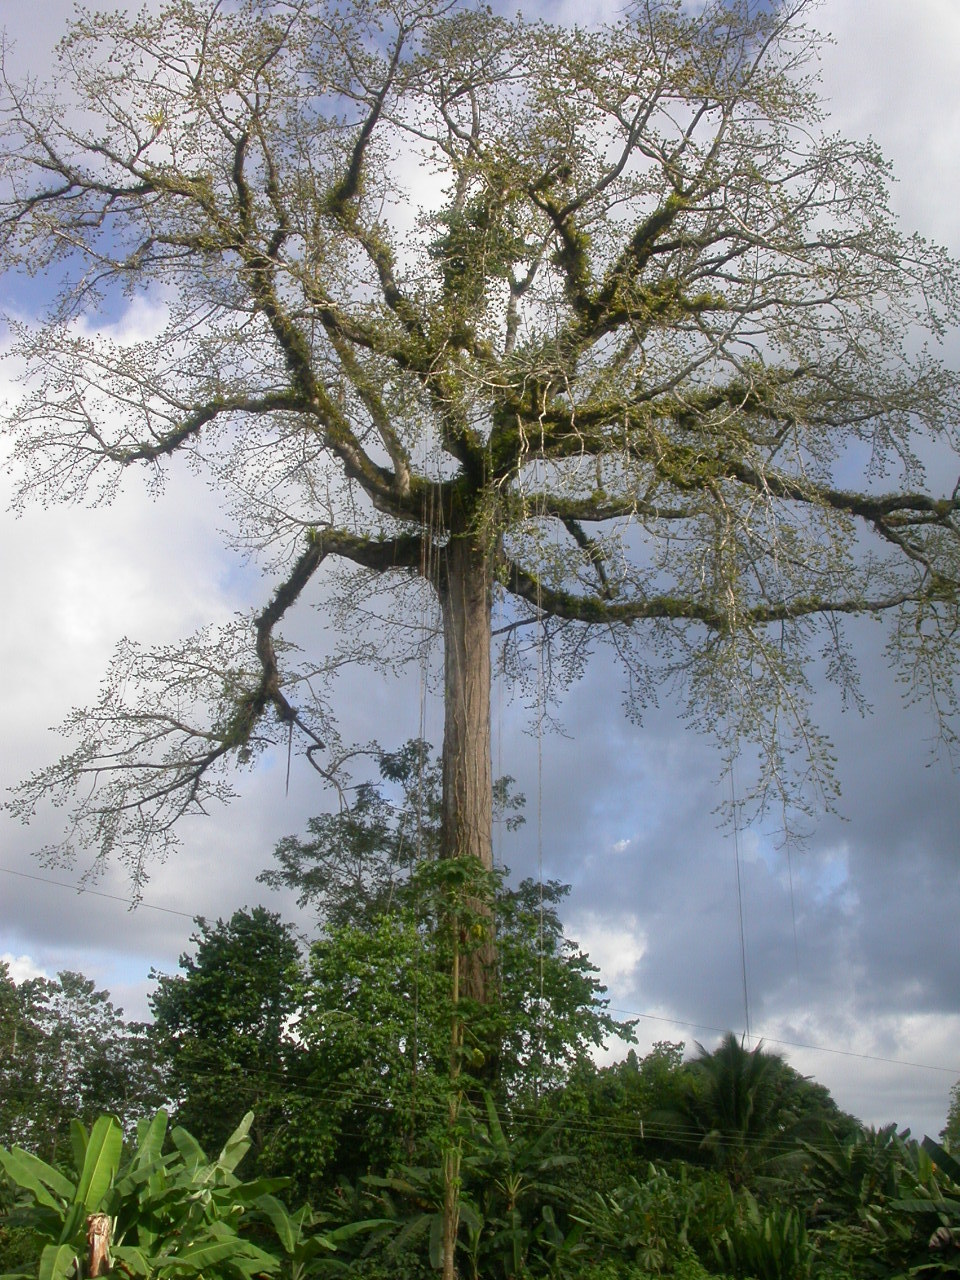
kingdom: Plantae
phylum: Tracheophyta
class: Magnoliopsida
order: Malvales
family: Malvaceae
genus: Ceiba
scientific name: Ceiba pentandra
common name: Kapok
